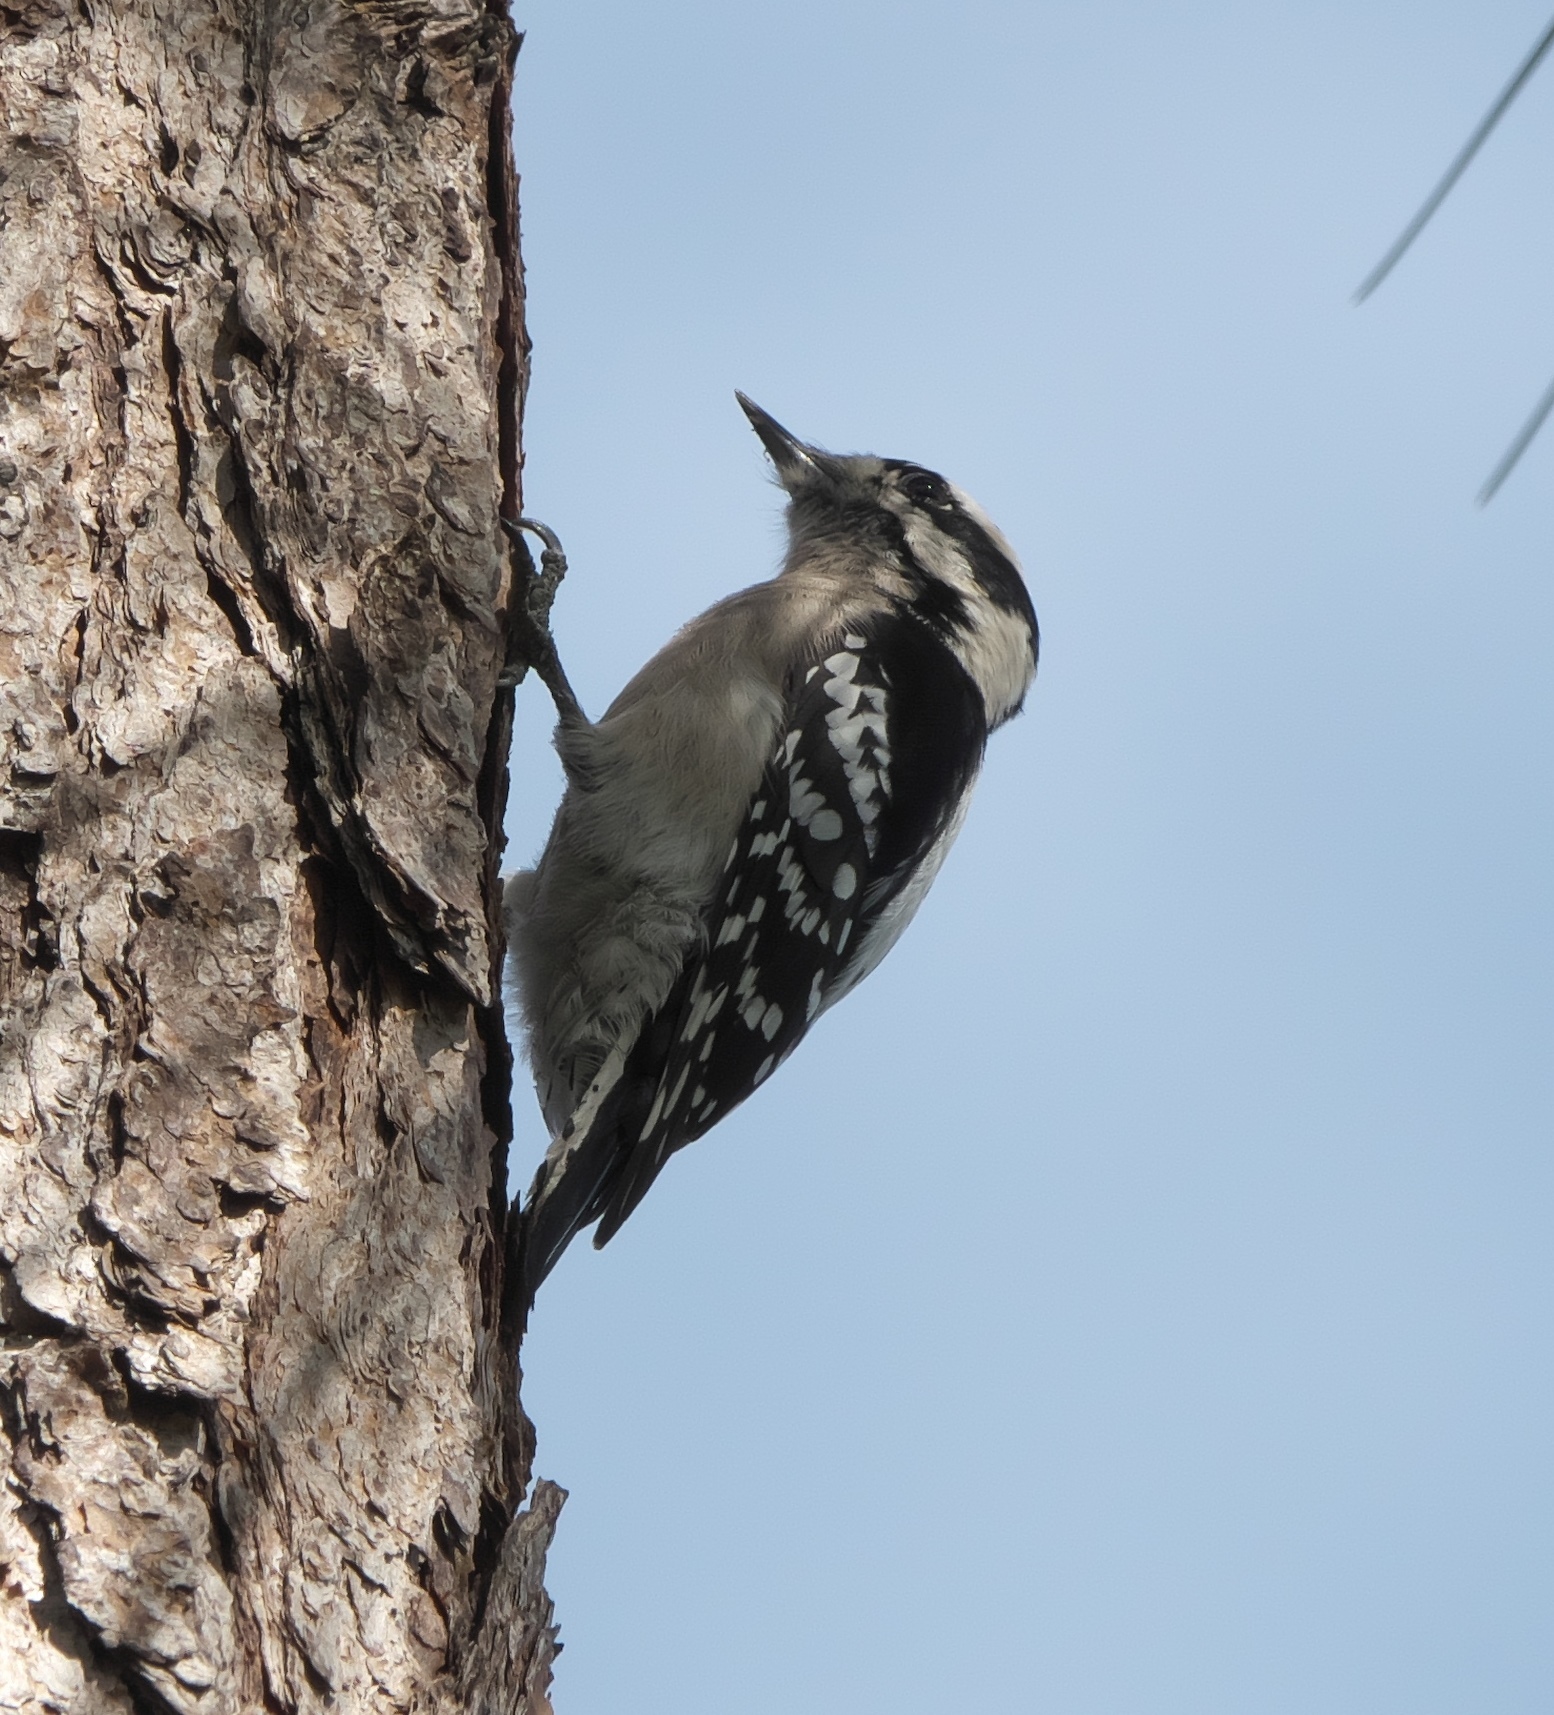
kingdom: Animalia
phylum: Chordata
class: Aves
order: Piciformes
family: Picidae
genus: Dryobates
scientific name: Dryobates pubescens
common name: Downy woodpecker
